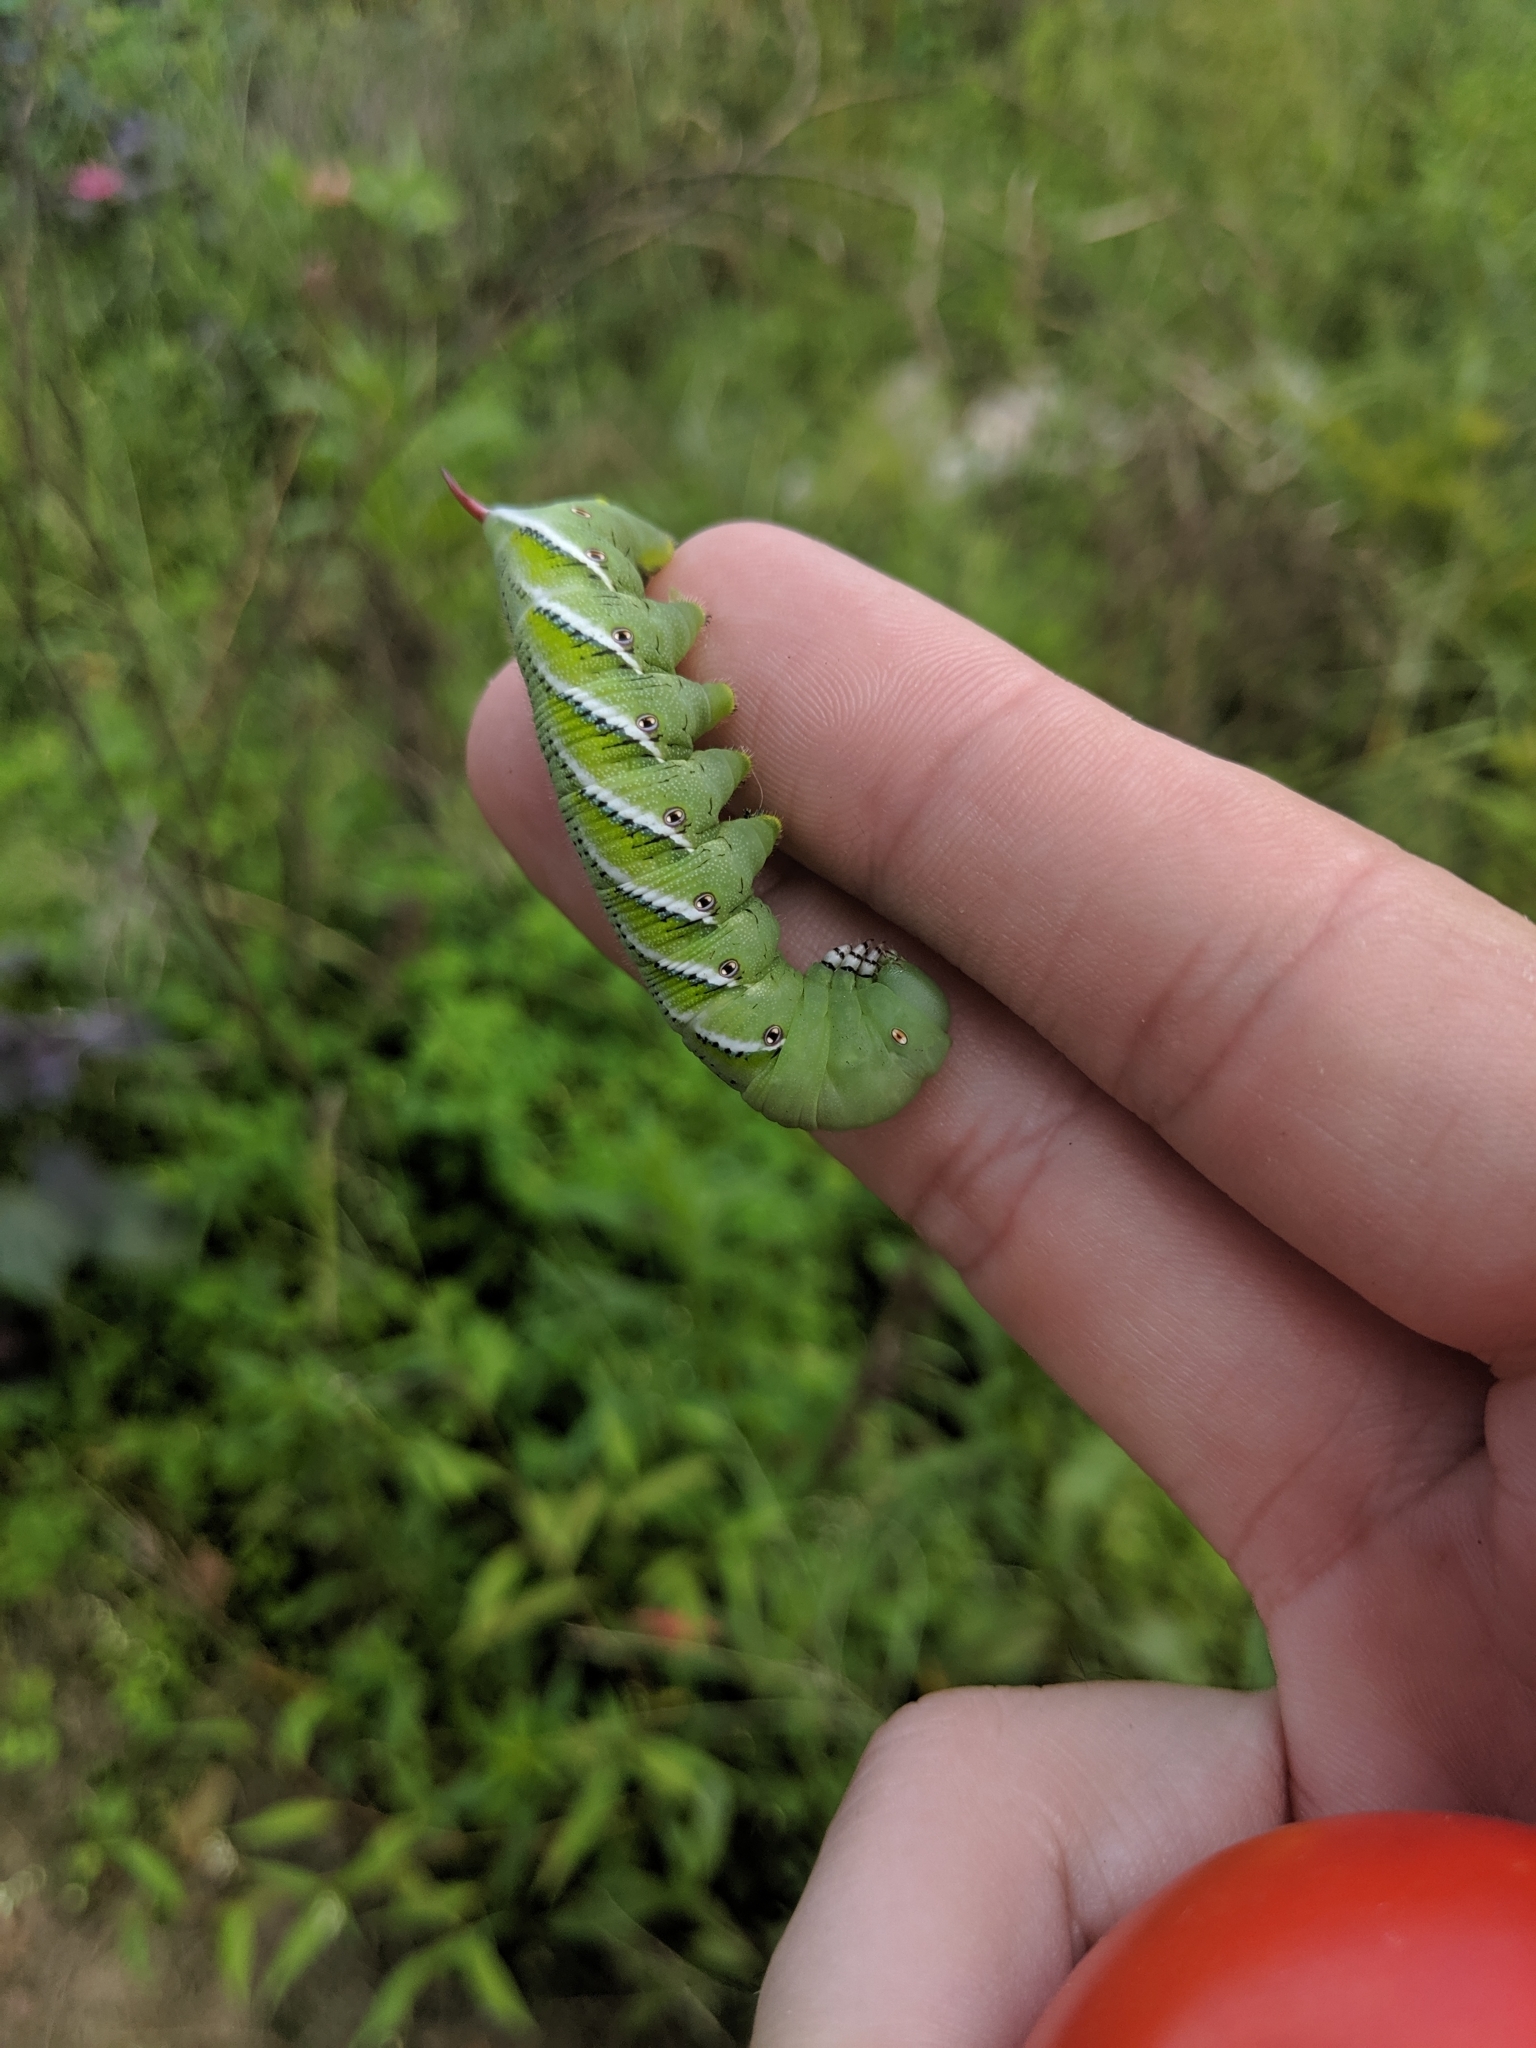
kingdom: Animalia
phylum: Arthropoda
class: Insecta
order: Lepidoptera
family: Sphingidae
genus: Manduca
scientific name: Manduca sexta
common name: Carolina sphinx
